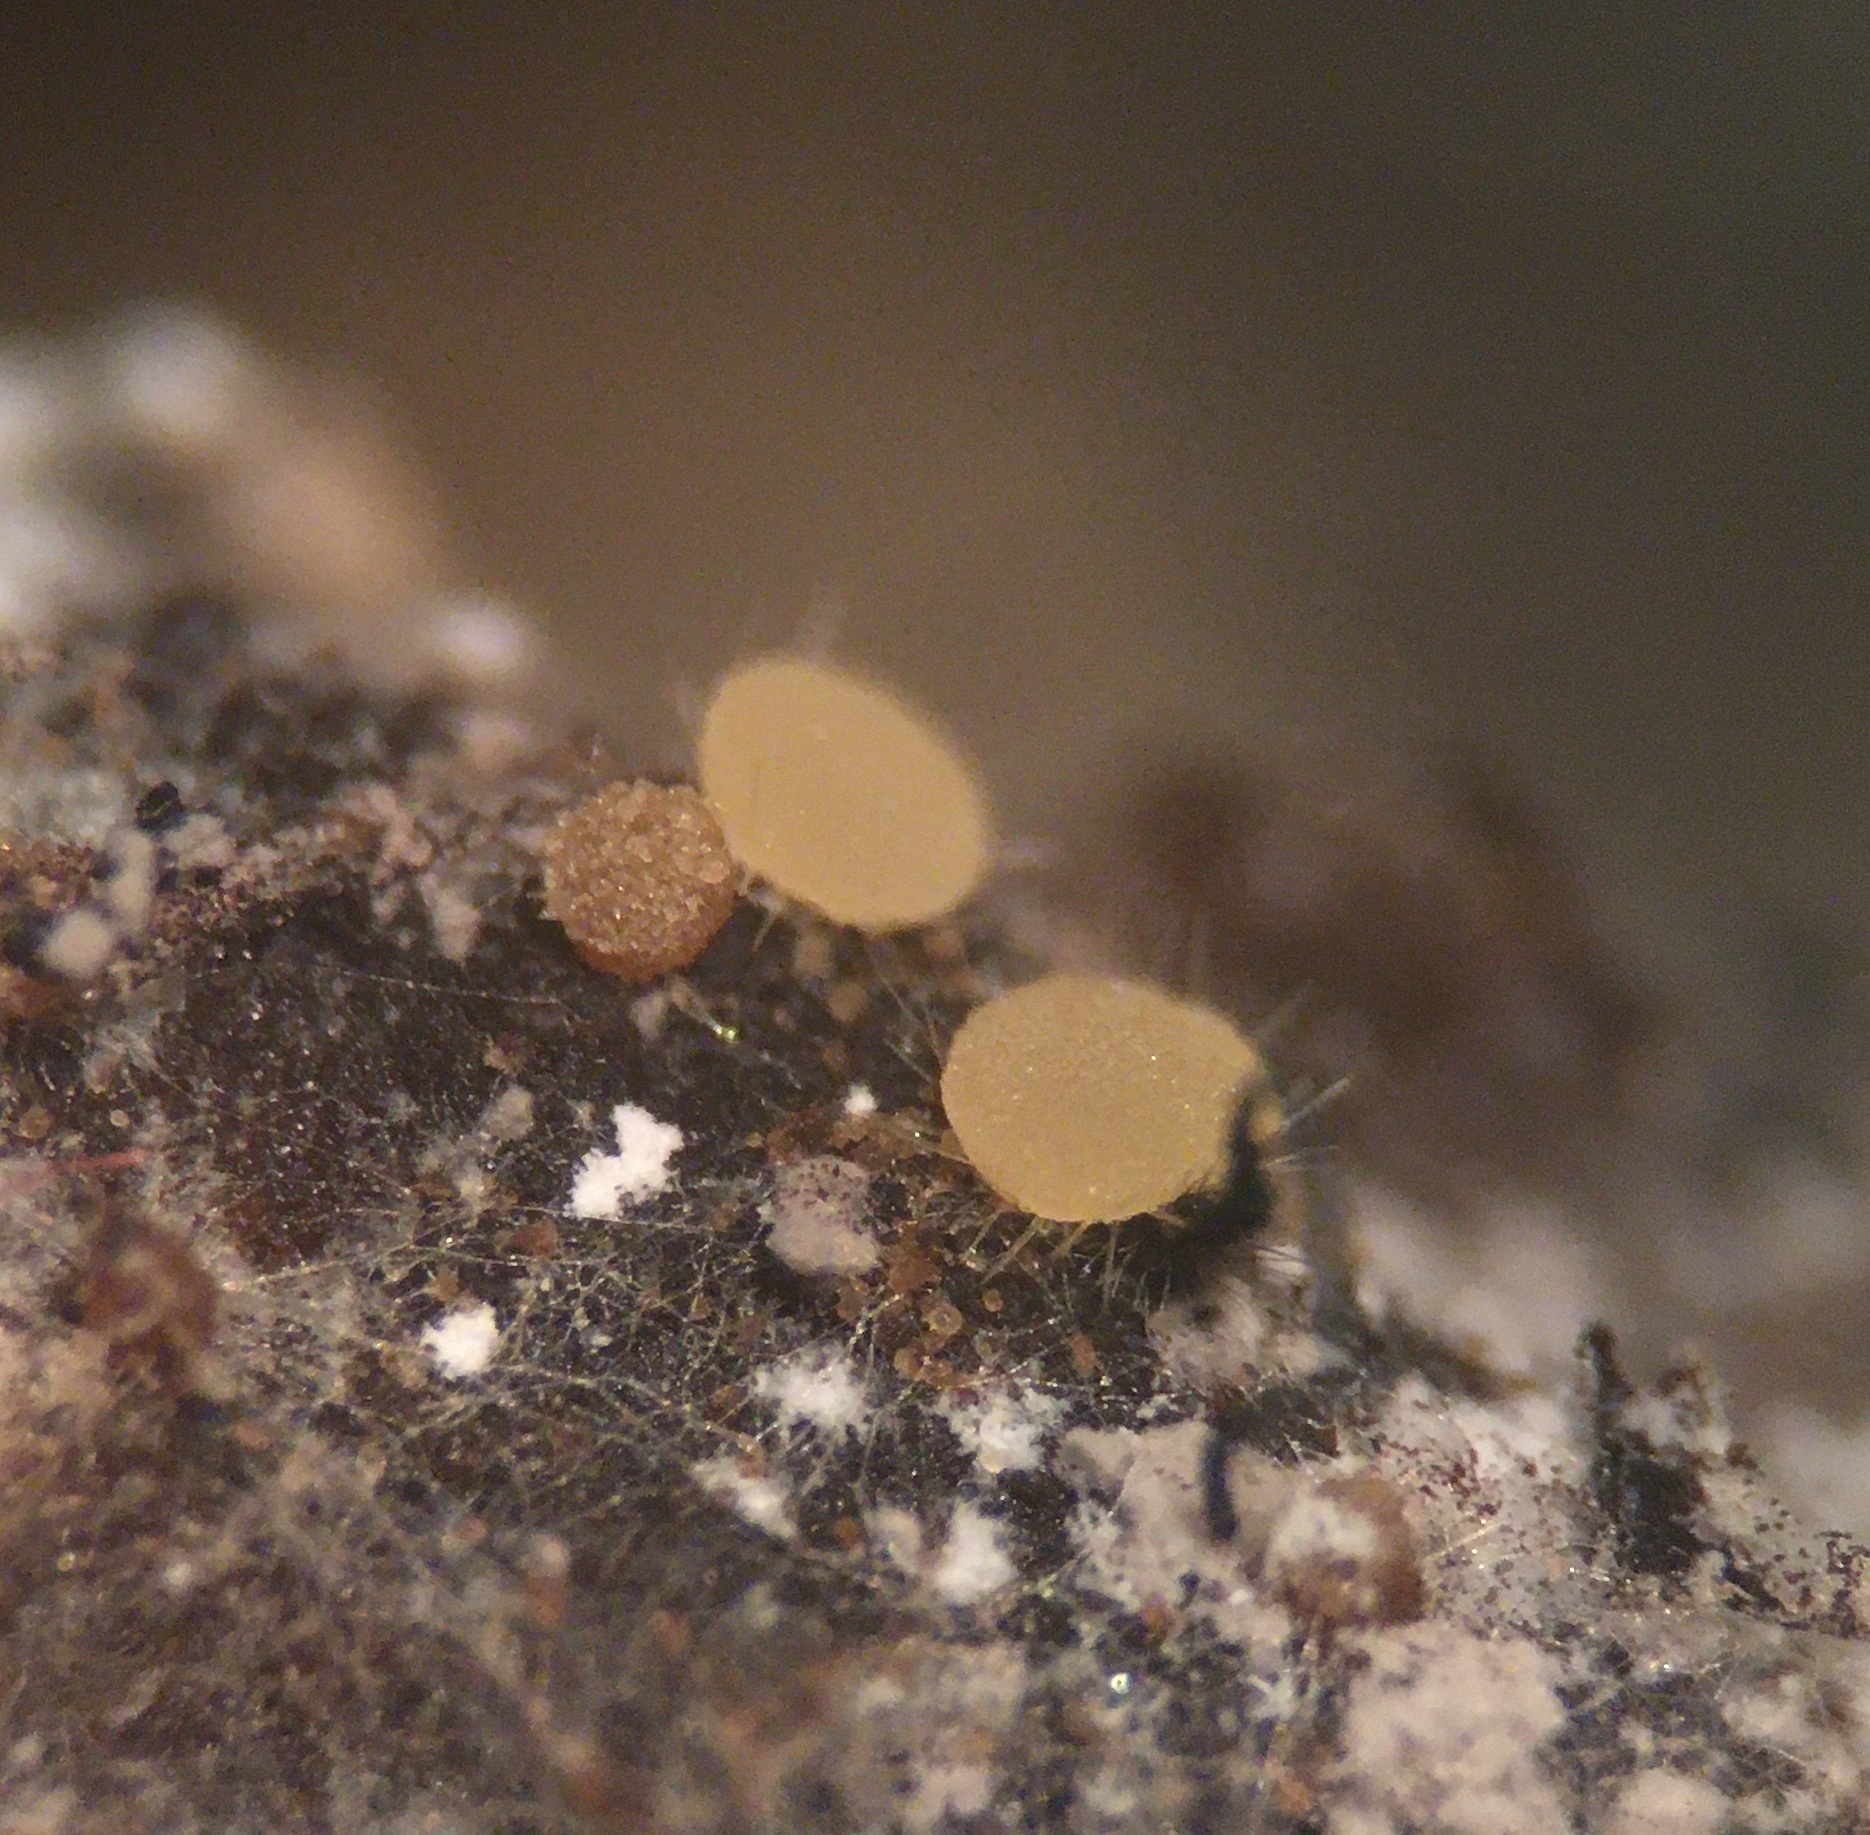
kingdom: Fungi
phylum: Ascomycota
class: Pezizomycetes
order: Pezizales
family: Ascodesmidaceae
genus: Lasiobolus
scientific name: Lasiobolus microsporus
